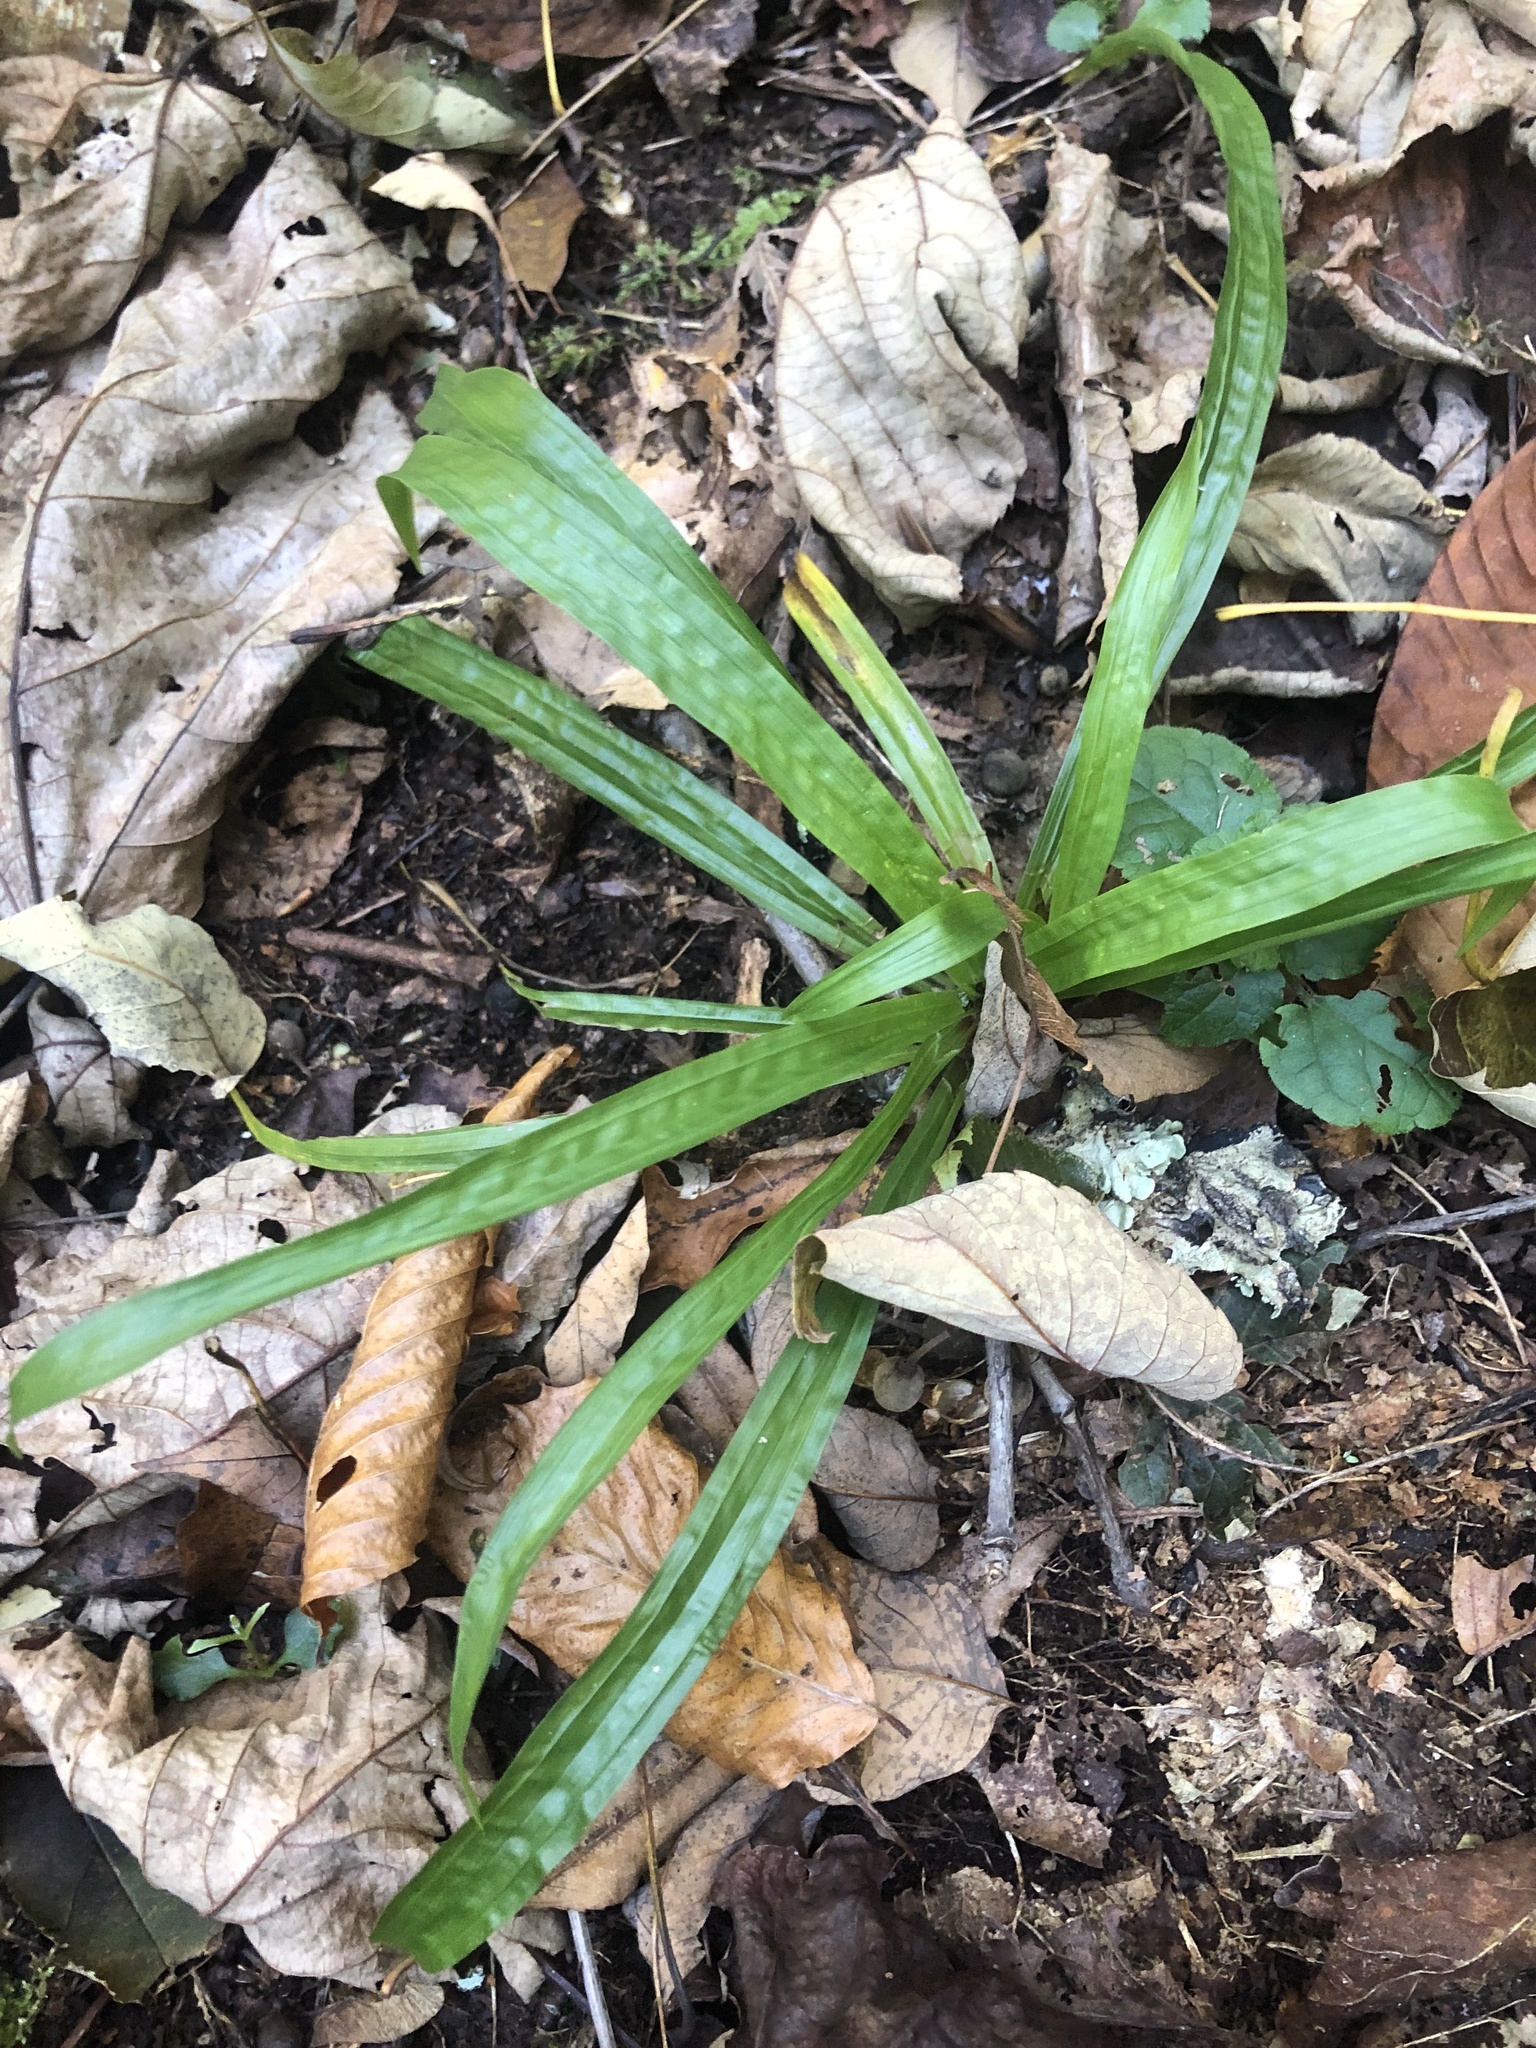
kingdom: Plantae
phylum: Tracheophyta
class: Liliopsida
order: Poales
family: Cyperaceae
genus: Carex
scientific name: Carex plantaginea
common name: Plantain-leaved sedge
